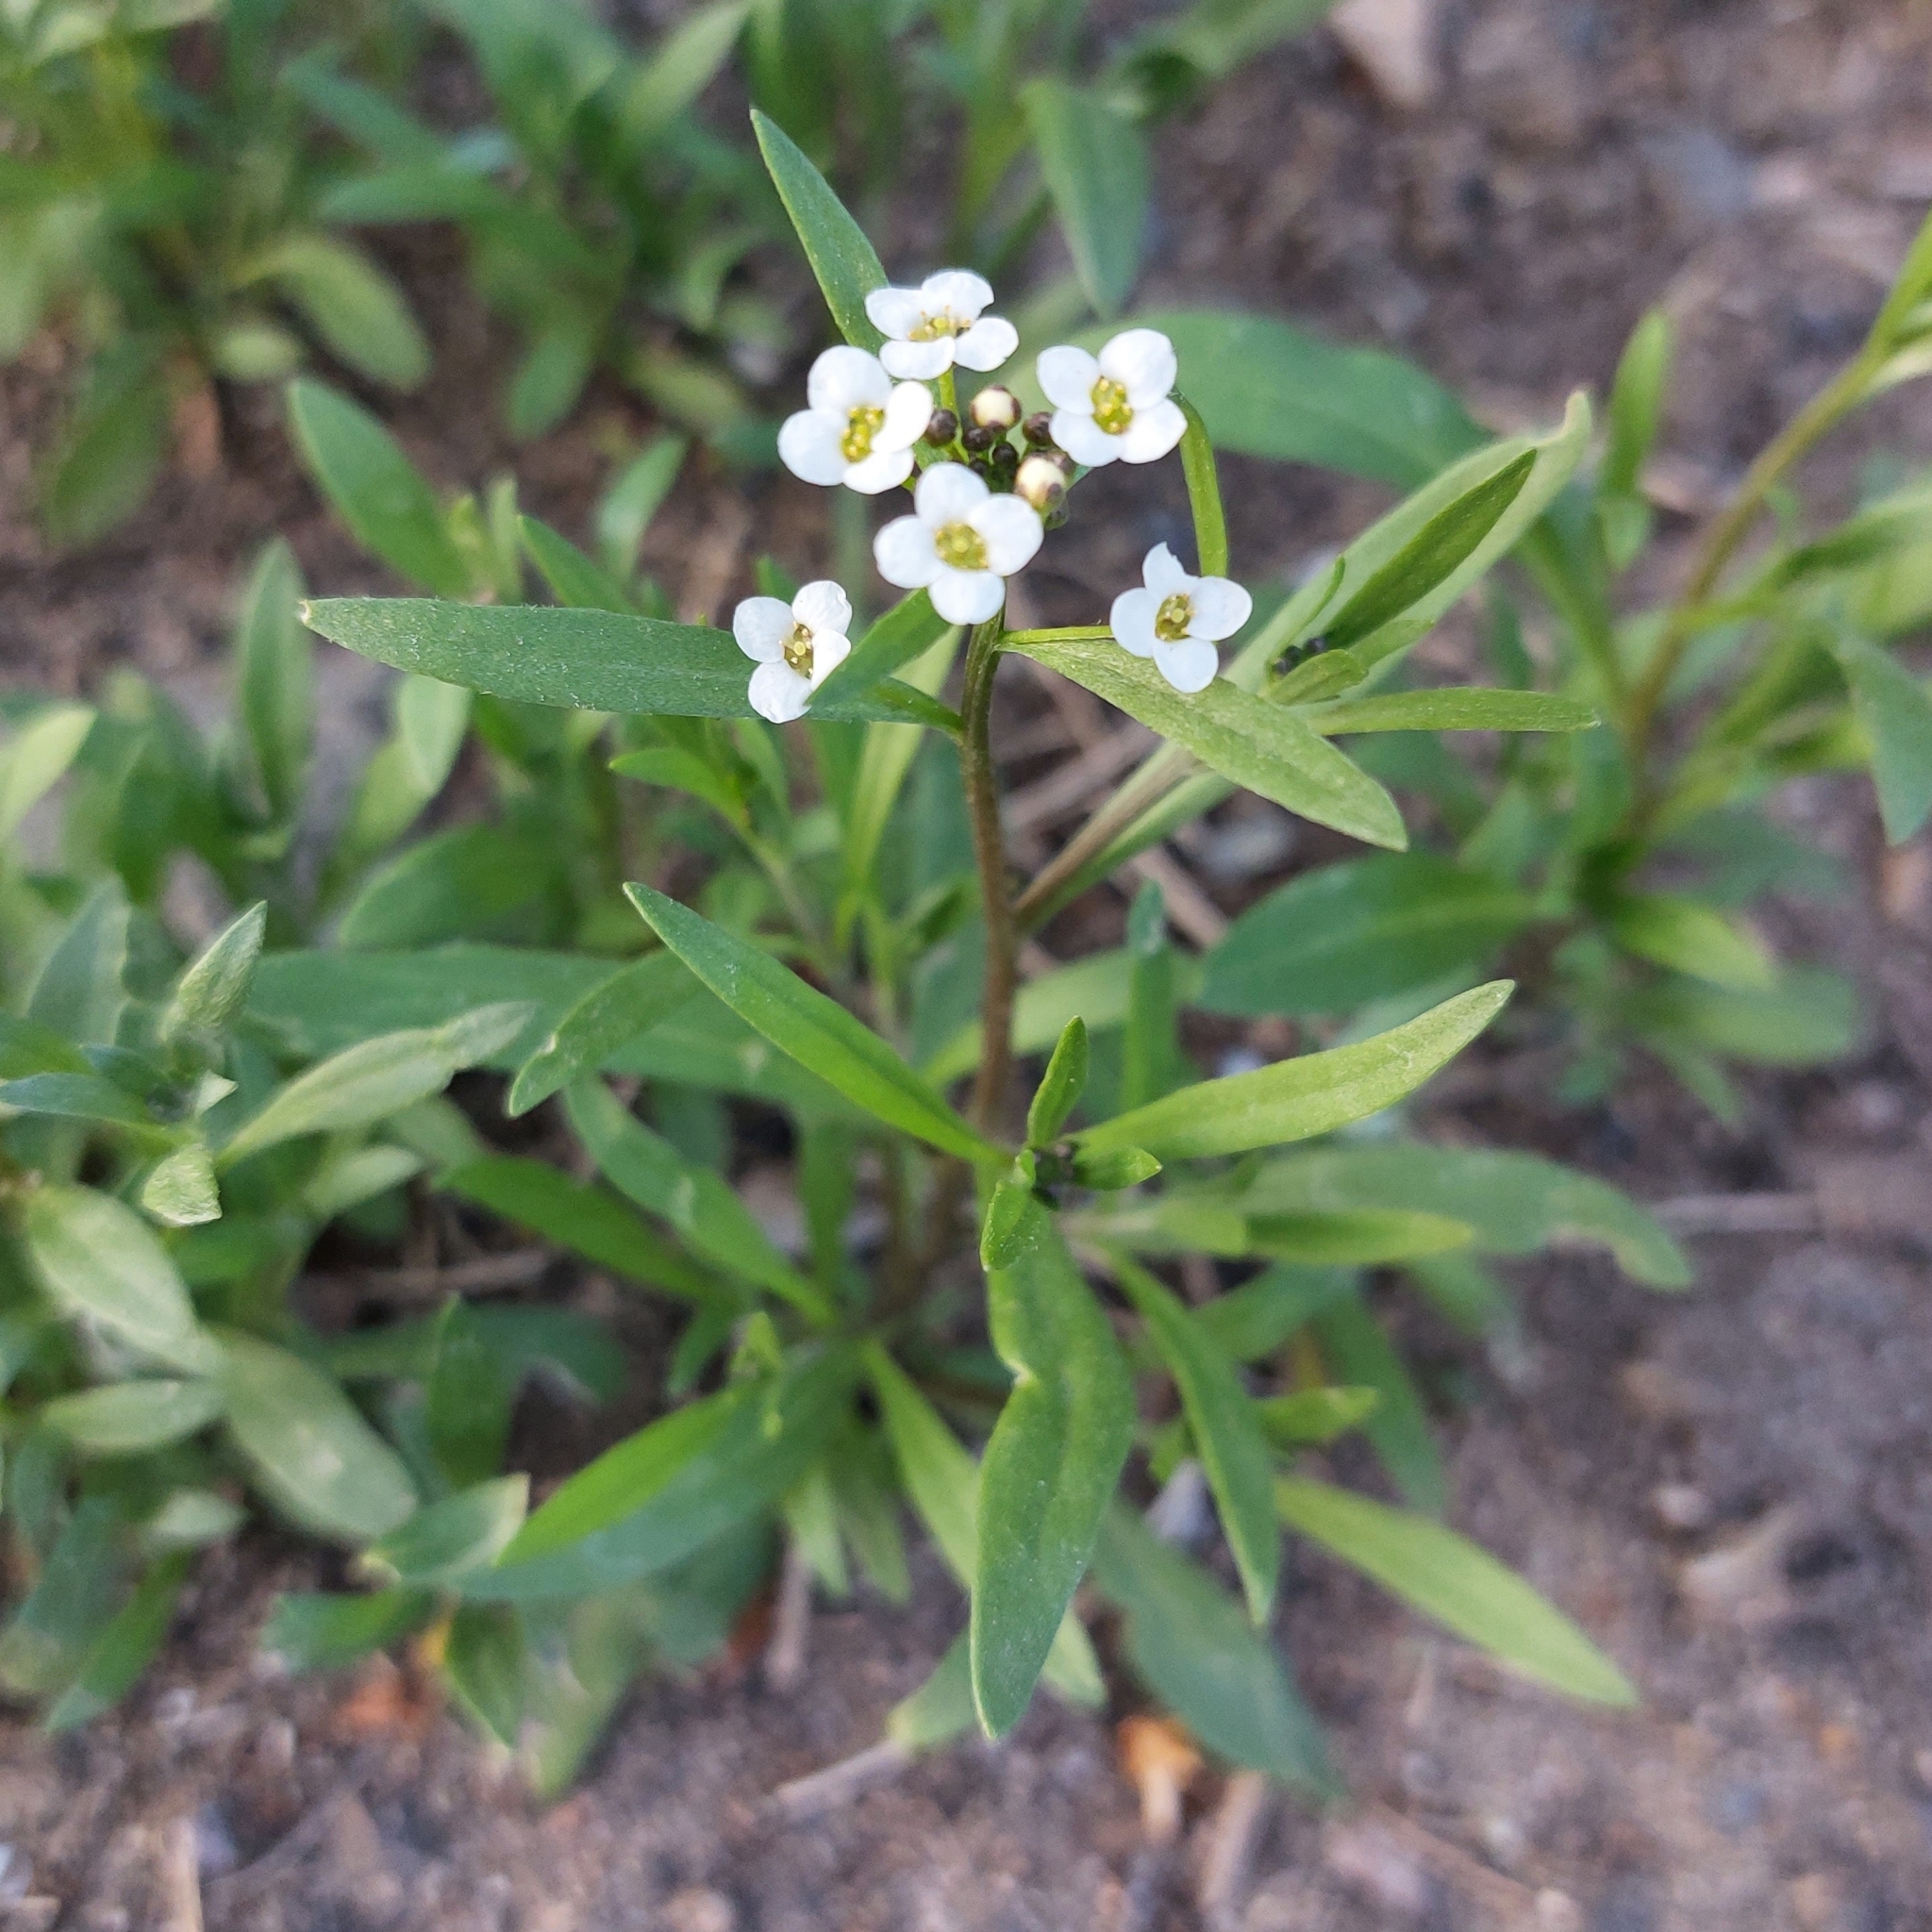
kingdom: Plantae
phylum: Tracheophyta
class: Magnoliopsida
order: Brassicales
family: Brassicaceae
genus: Lobularia
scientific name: Lobularia maritima
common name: Sweet alison
